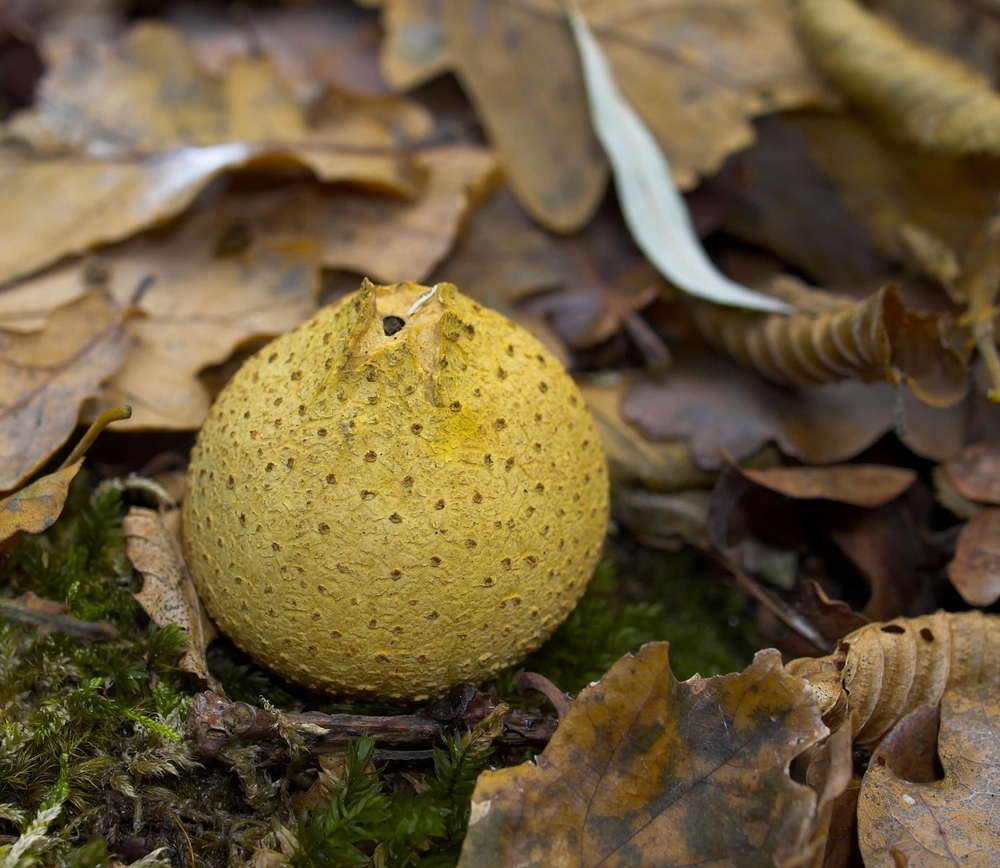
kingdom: Fungi
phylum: Basidiomycota
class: Agaricomycetes
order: Boletales
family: Sclerodermataceae
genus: Scleroderma
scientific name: Scleroderma citrinum
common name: Common earthball
